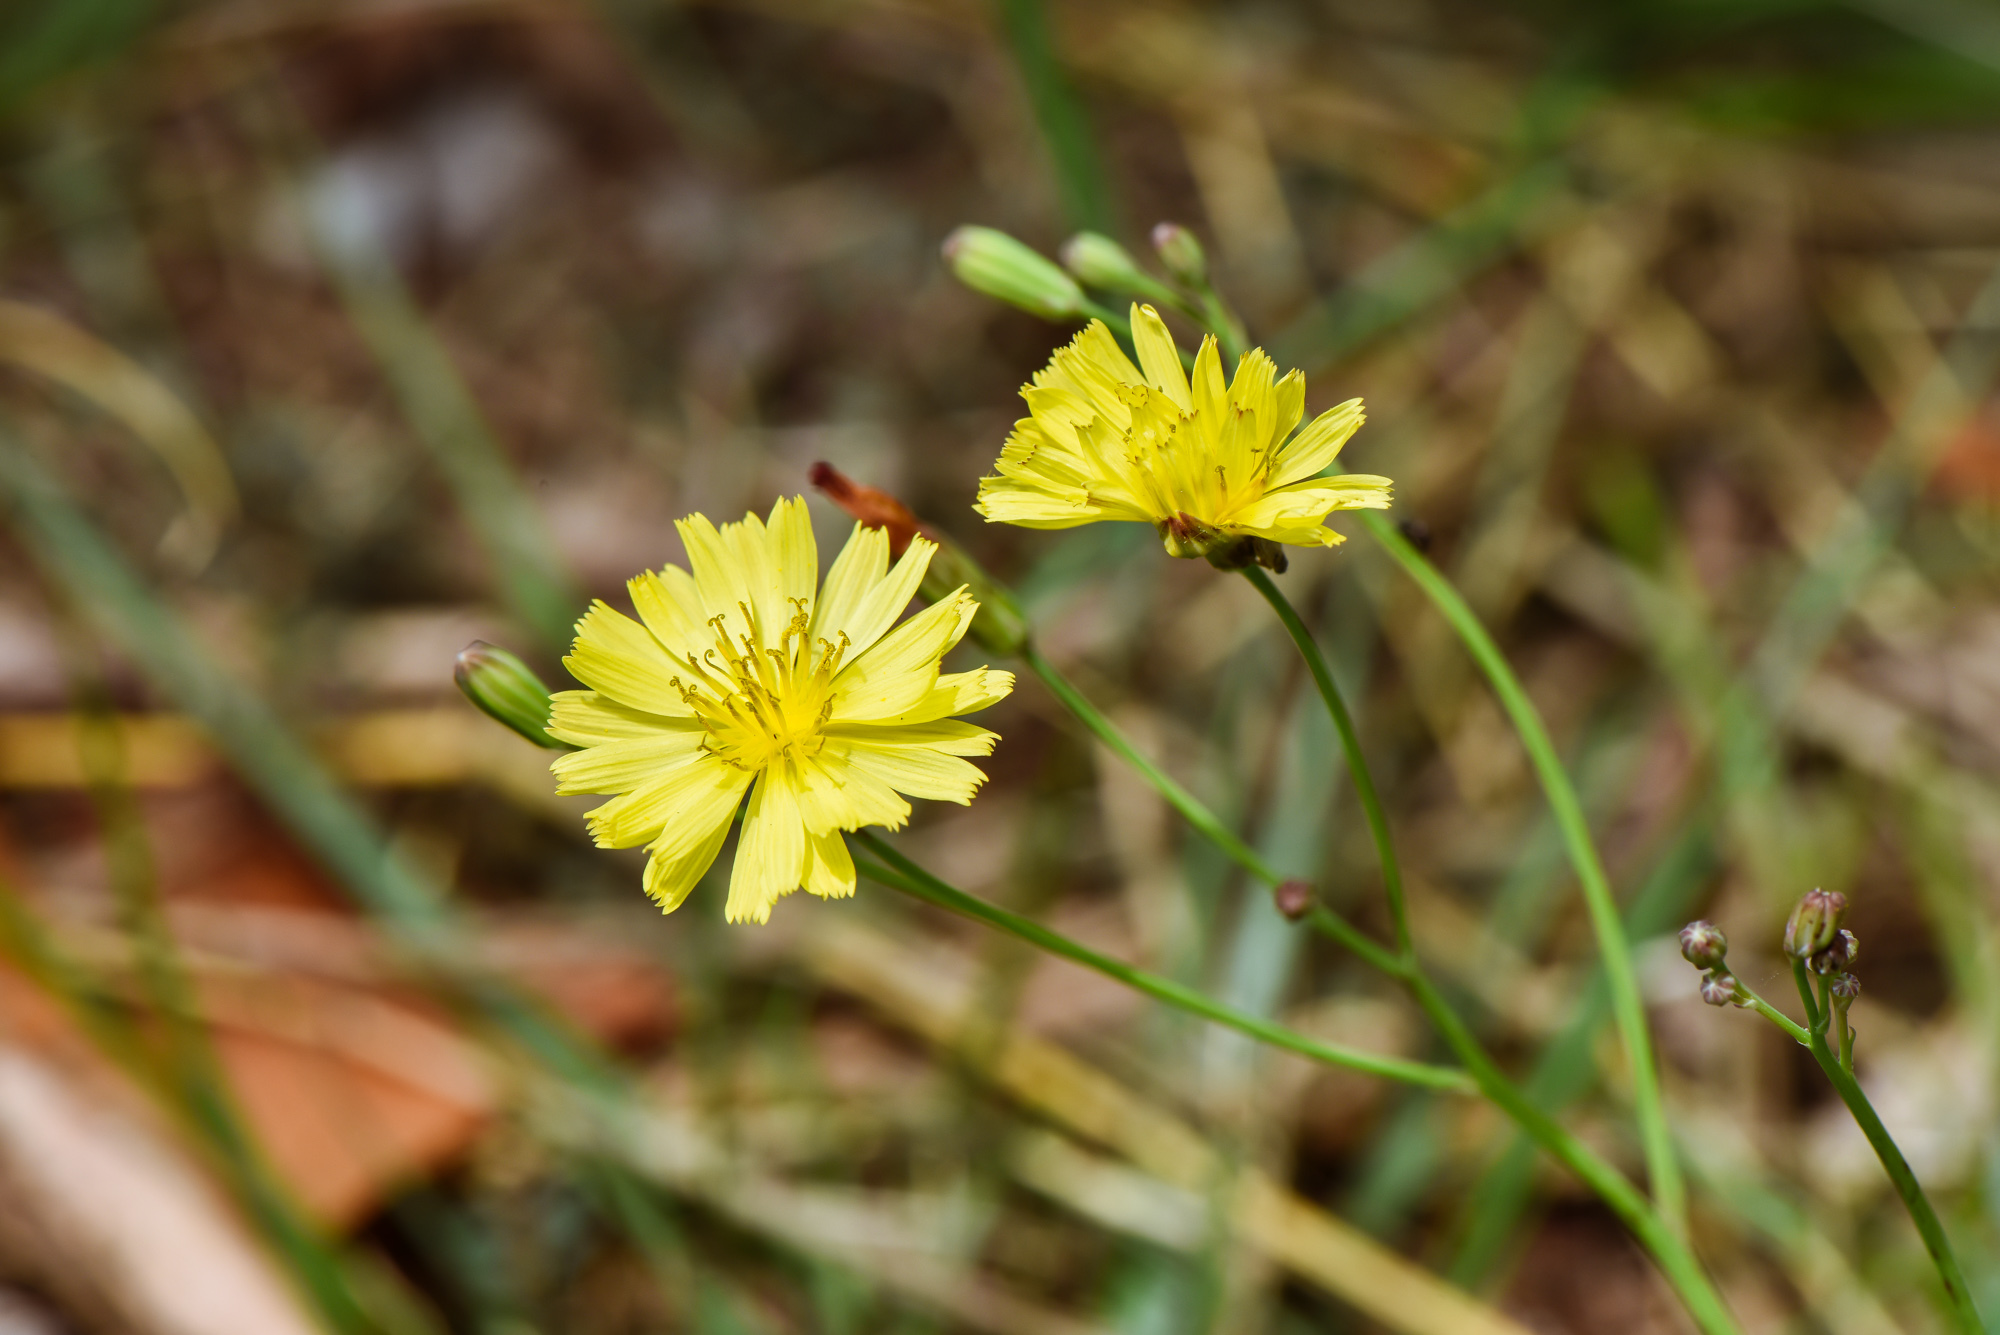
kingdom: Plantae
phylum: Tracheophyta
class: Magnoliopsida
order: Asterales
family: Asteraceae
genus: Ixeris
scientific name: Ixeris chinensis
